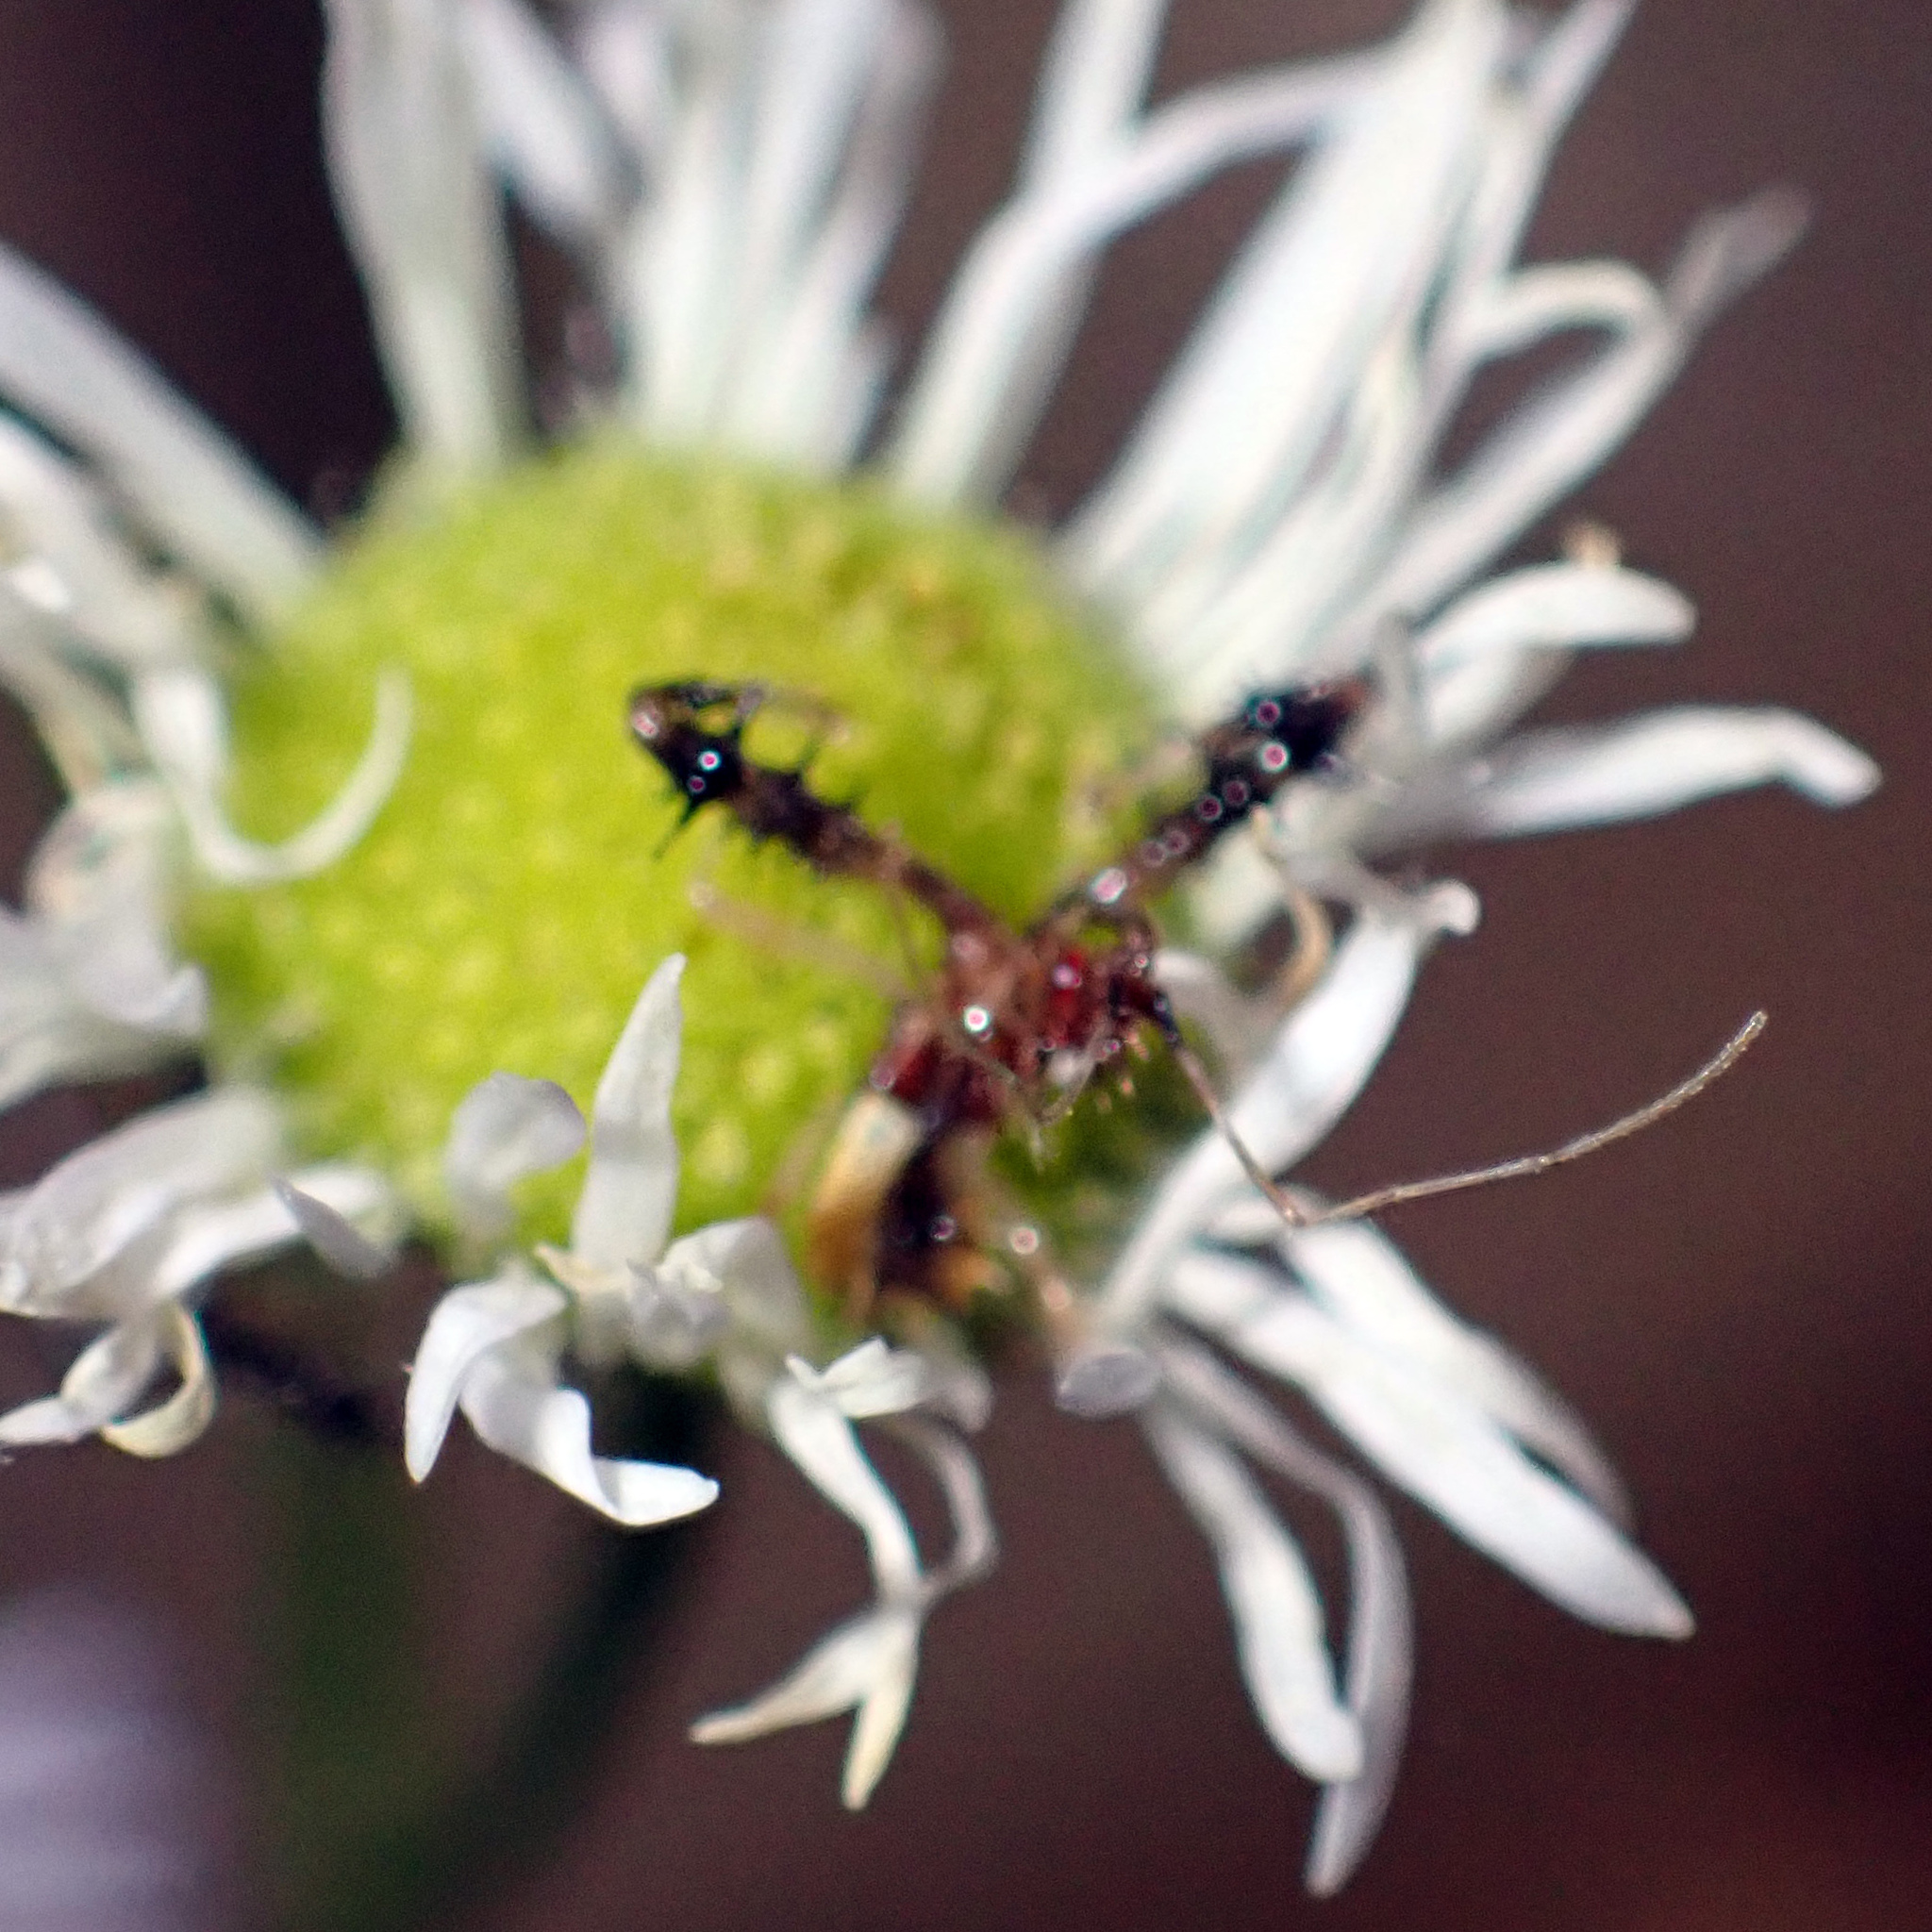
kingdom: Animalia
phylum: Arthropoda
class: Insecta
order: Hemiptera
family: Reduviidae
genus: Sinea
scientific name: Sinea spinipes
